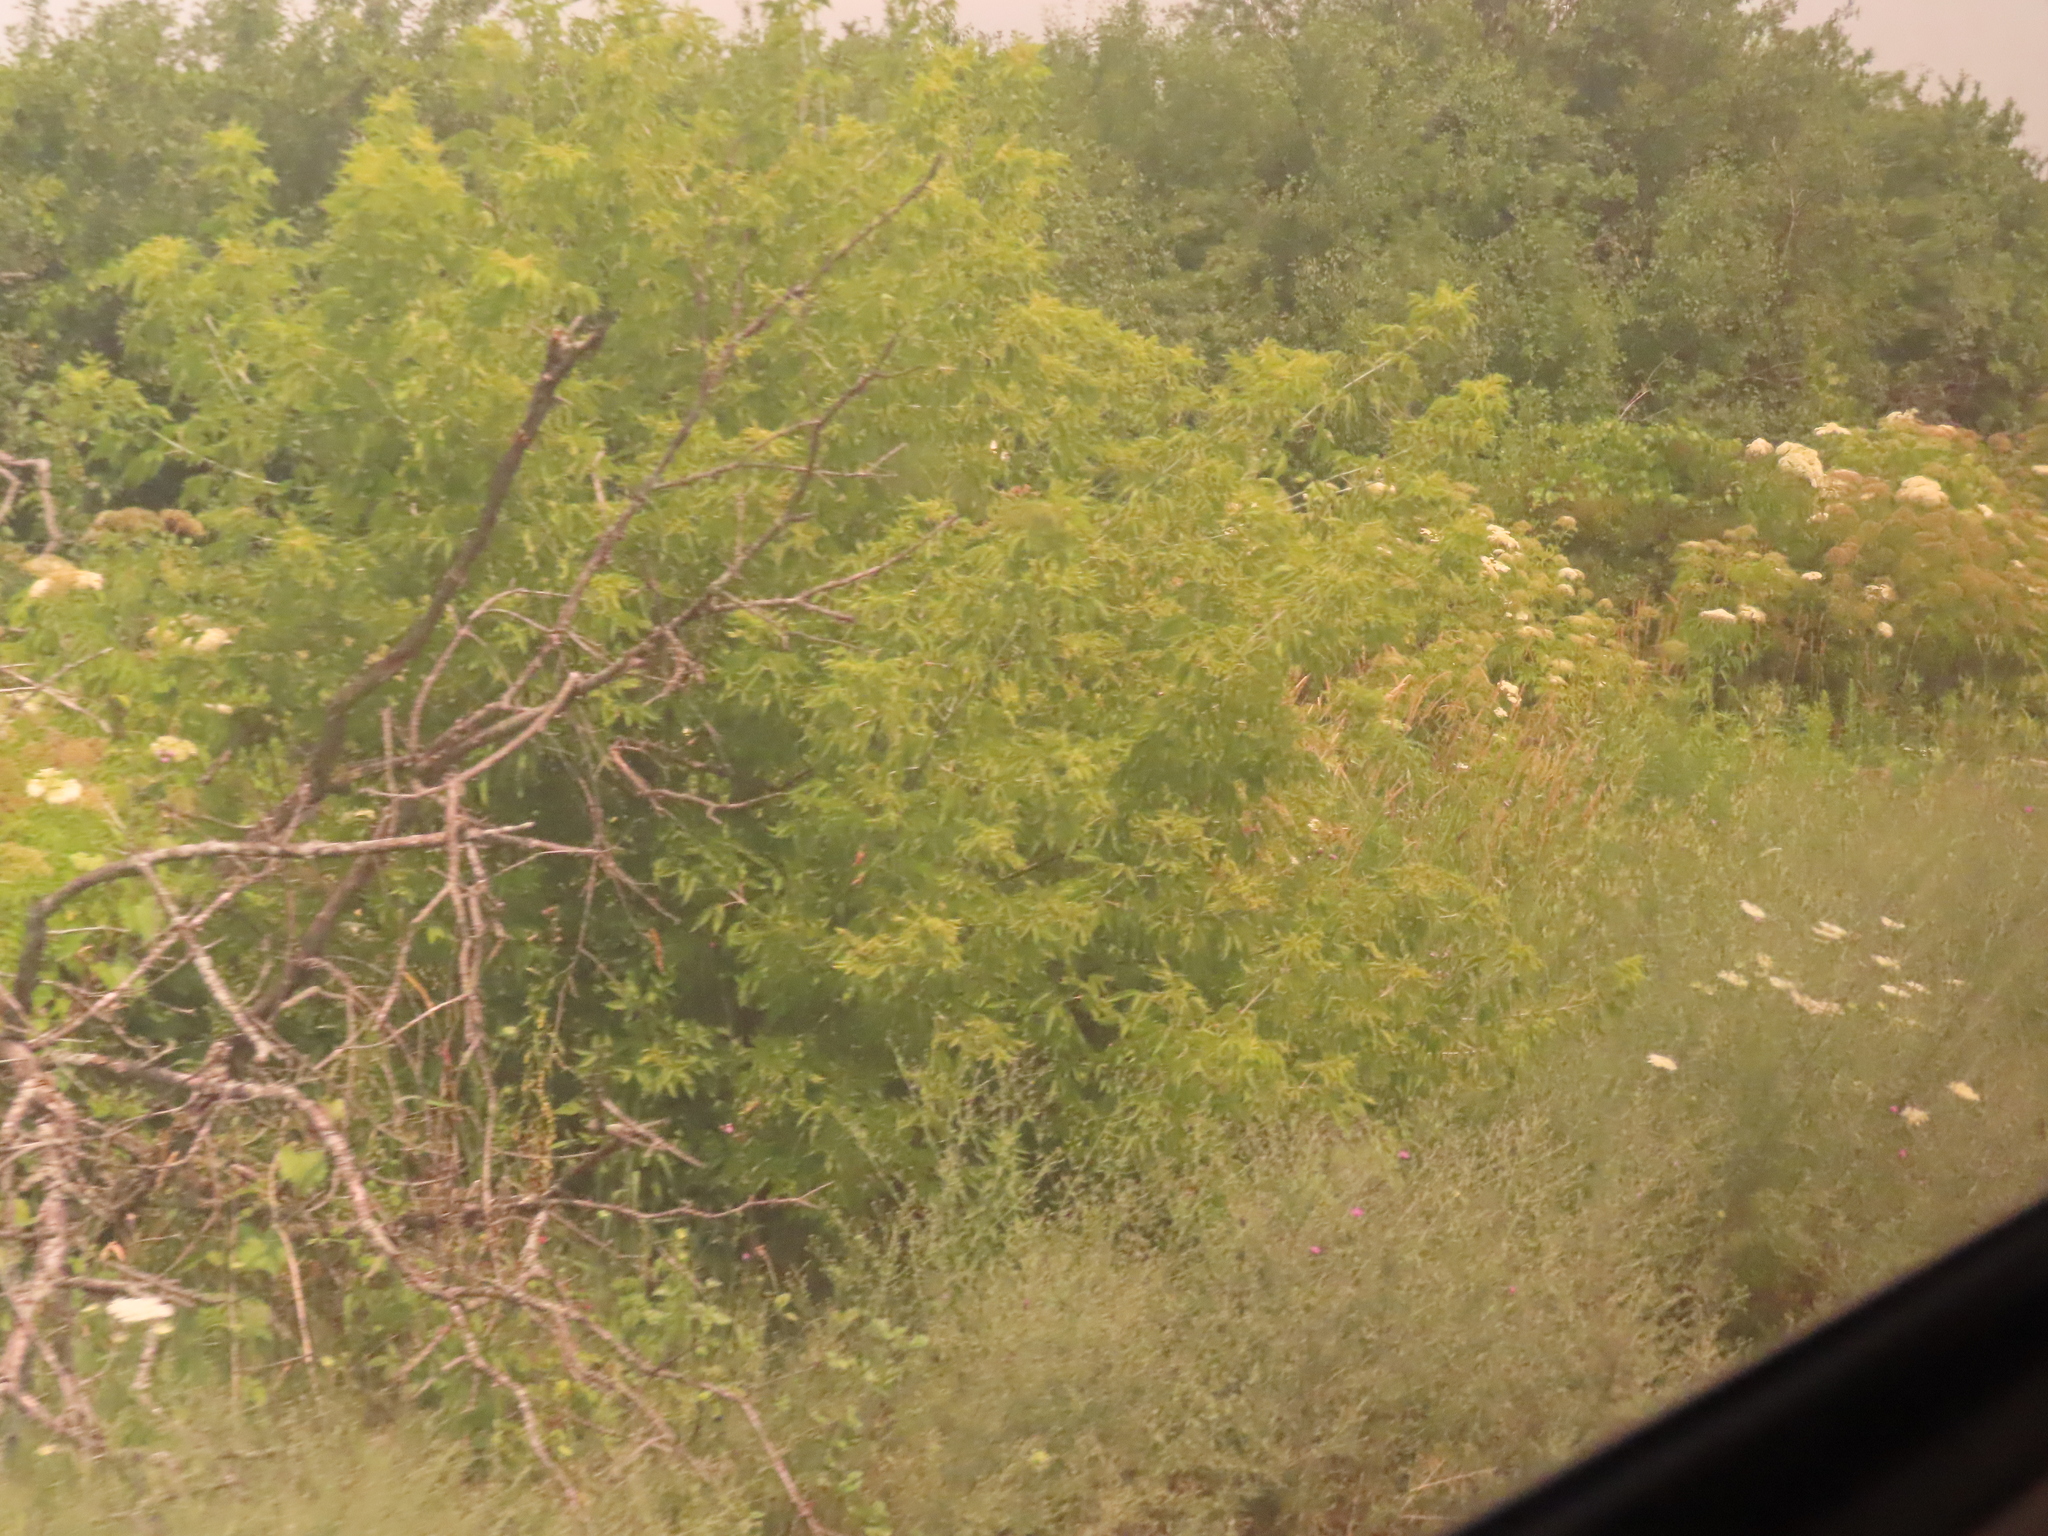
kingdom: Plantae
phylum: Tracheophyta
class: Magnoliopsida
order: Sapindales
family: Sapindaceae
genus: Acer
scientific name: Acer negundo
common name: Ashleaf maple
